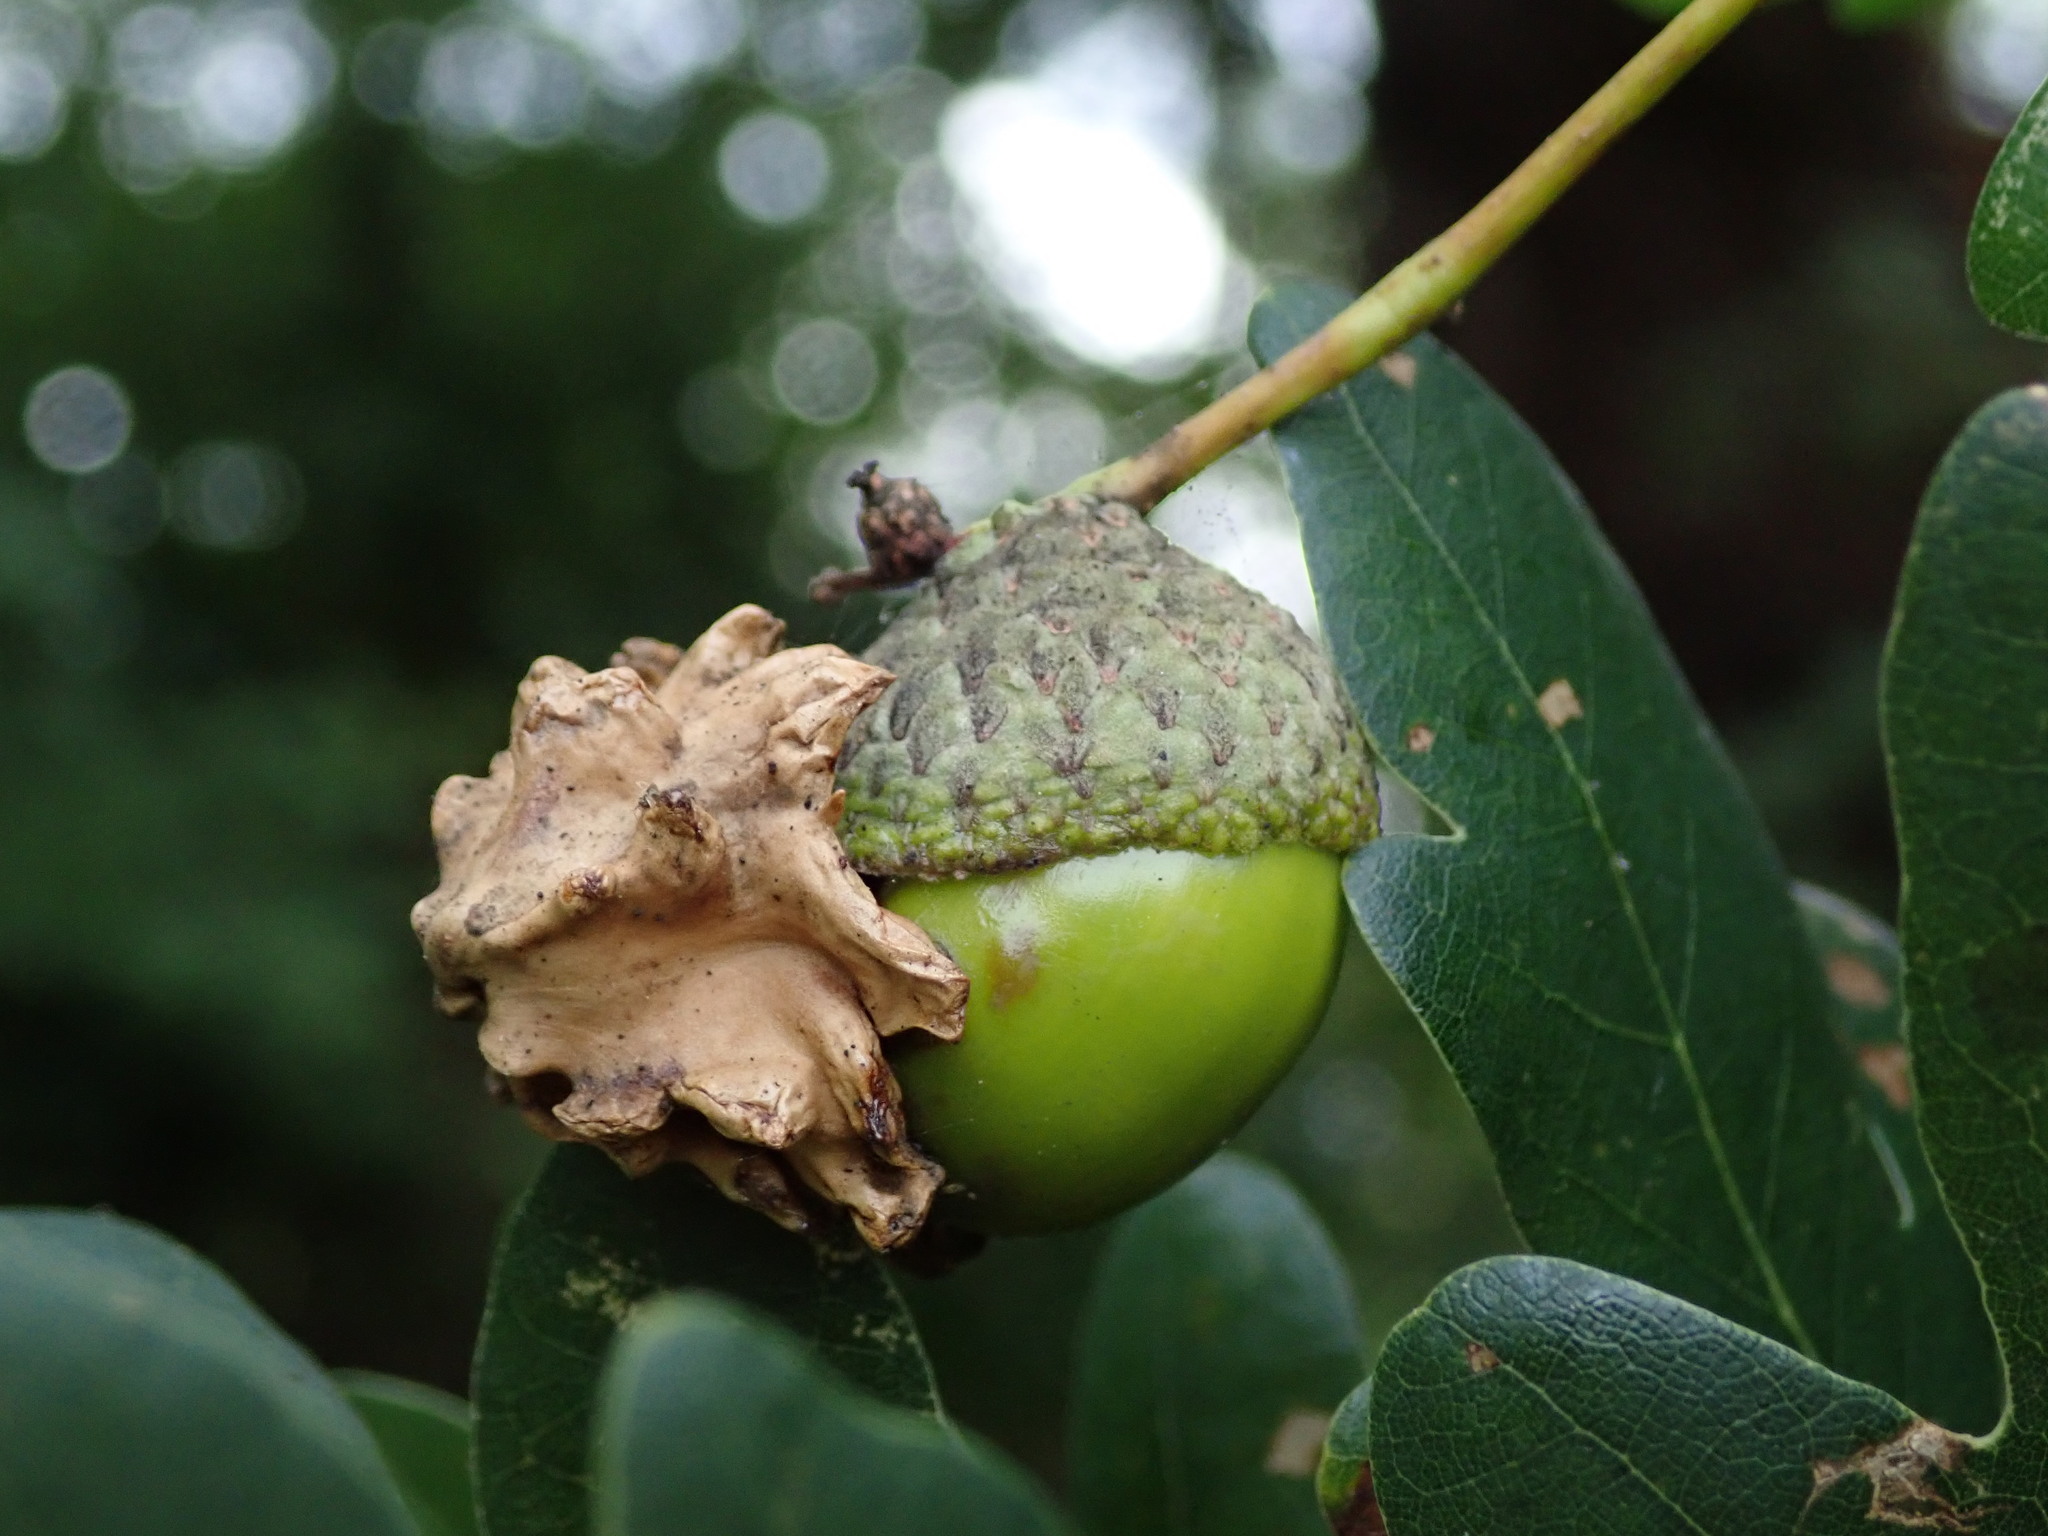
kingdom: Animalia
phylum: Arthropoda
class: Insecta
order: Hymenoptera
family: Cynipidae
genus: Andricus
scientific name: Andricus quercuscalicis
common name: Knopper gall
